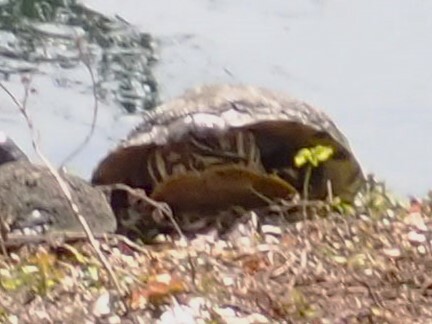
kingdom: Animalia
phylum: Chordata
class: Testudines
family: Emydidae
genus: Trachemys
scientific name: Trachemys scripta
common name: Slider
